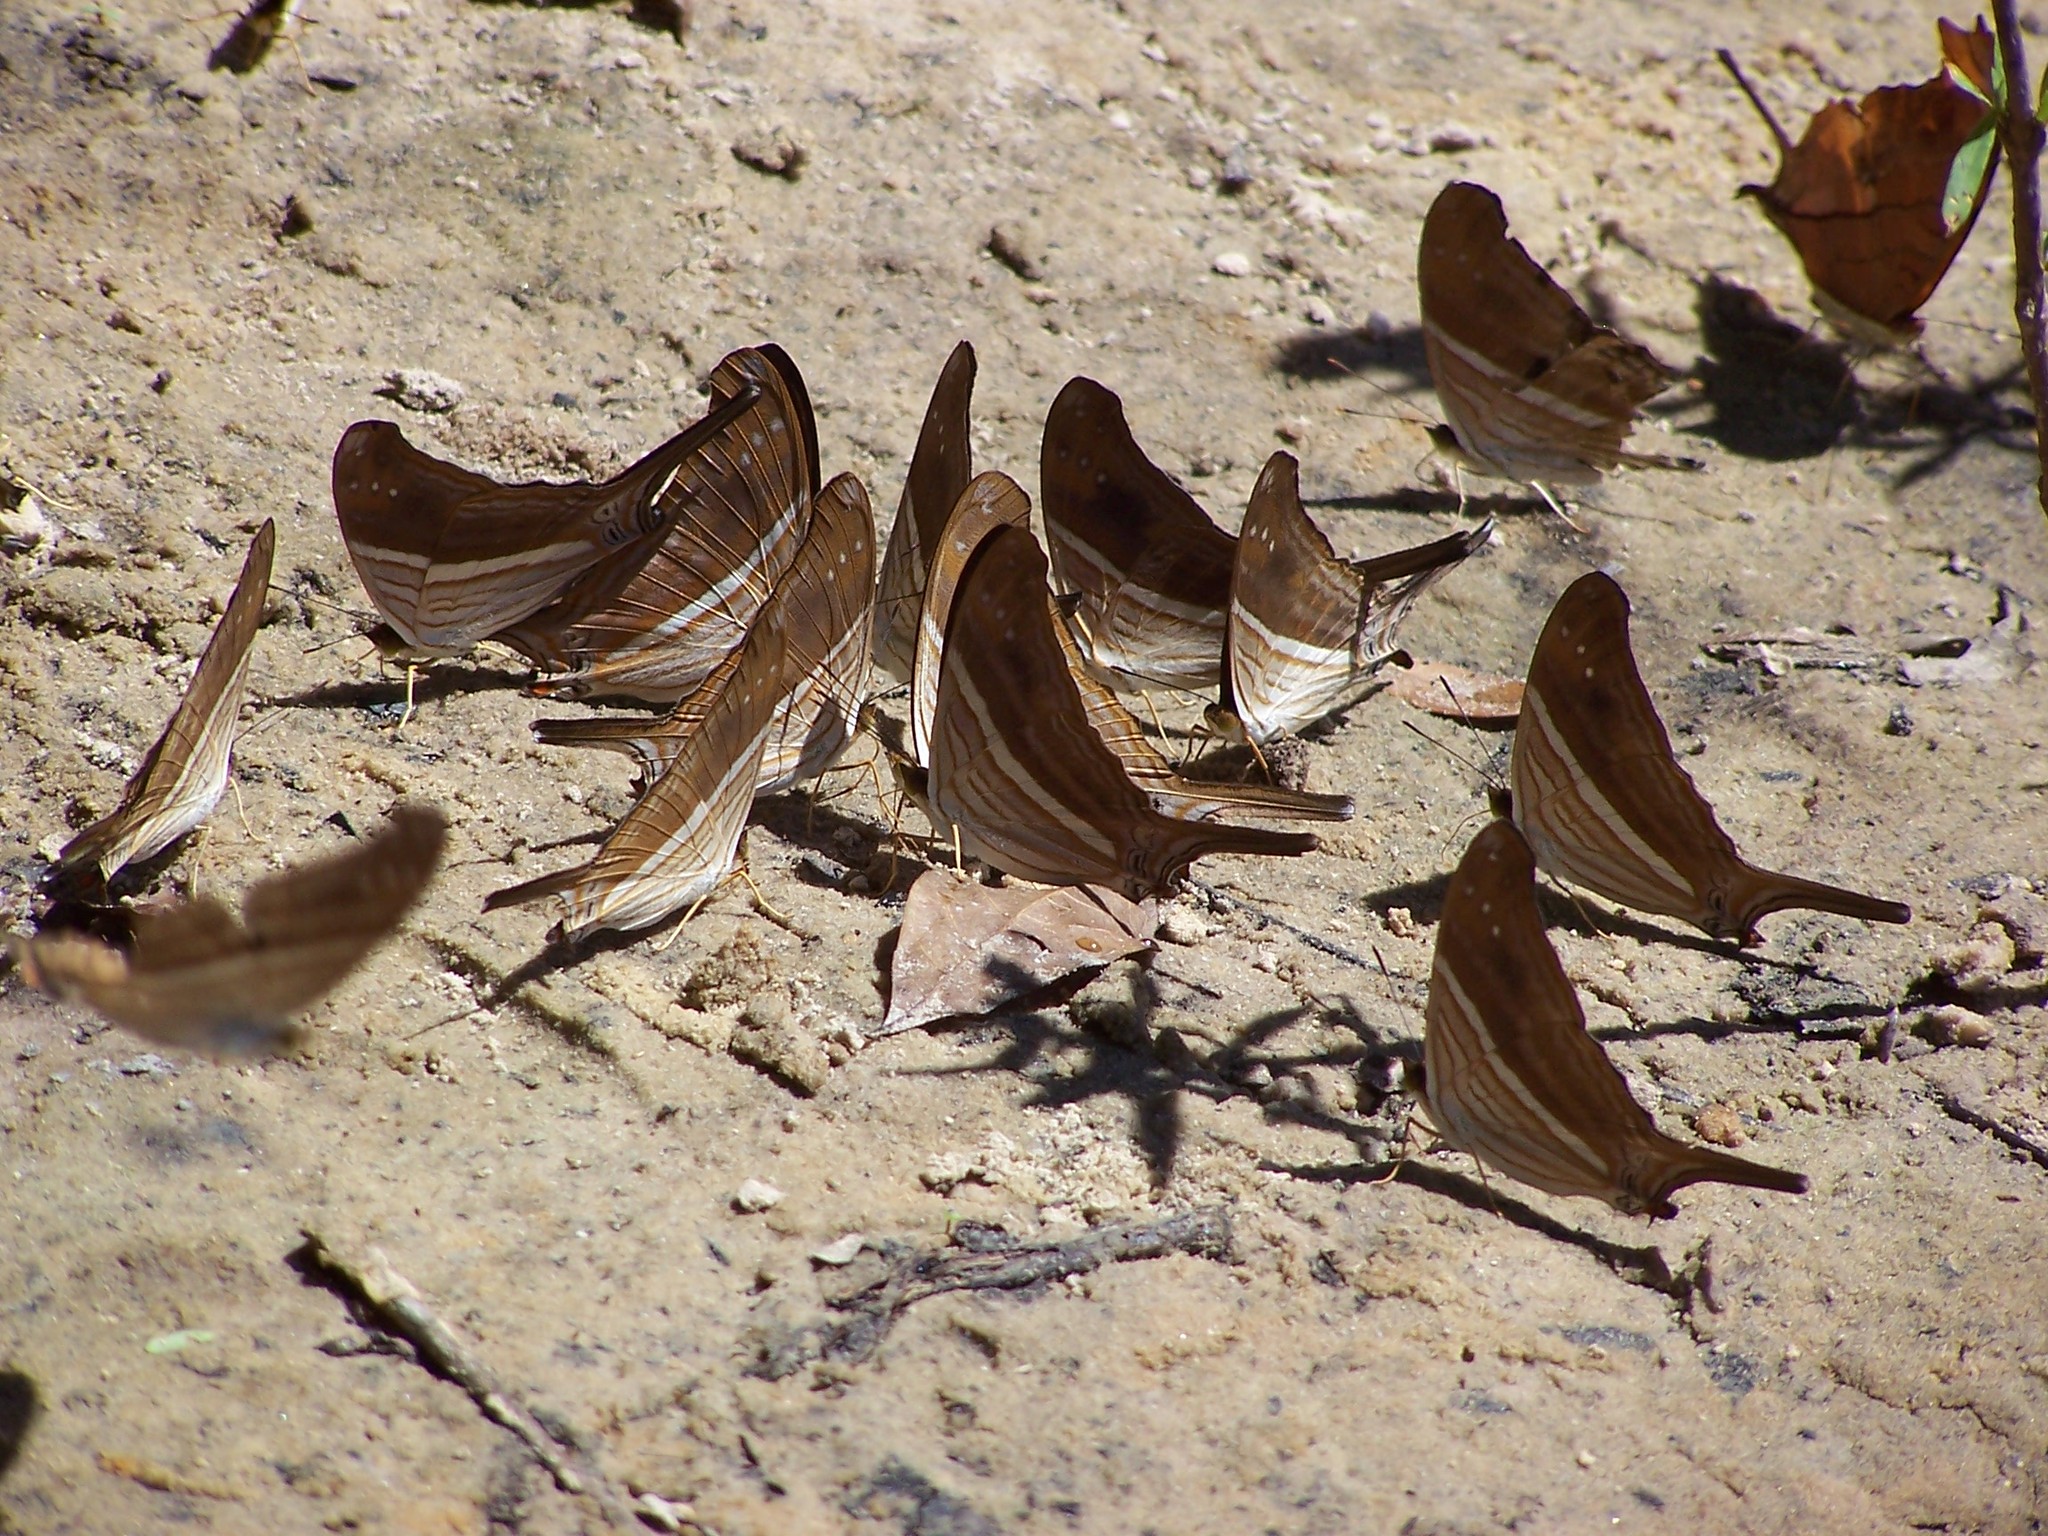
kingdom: Animalia
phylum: Arthropoda
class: Insecta
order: Lepidoptera
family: Nymphalidae
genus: Marpesia
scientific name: Marpesia chiron
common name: Many-banded daggerwing
